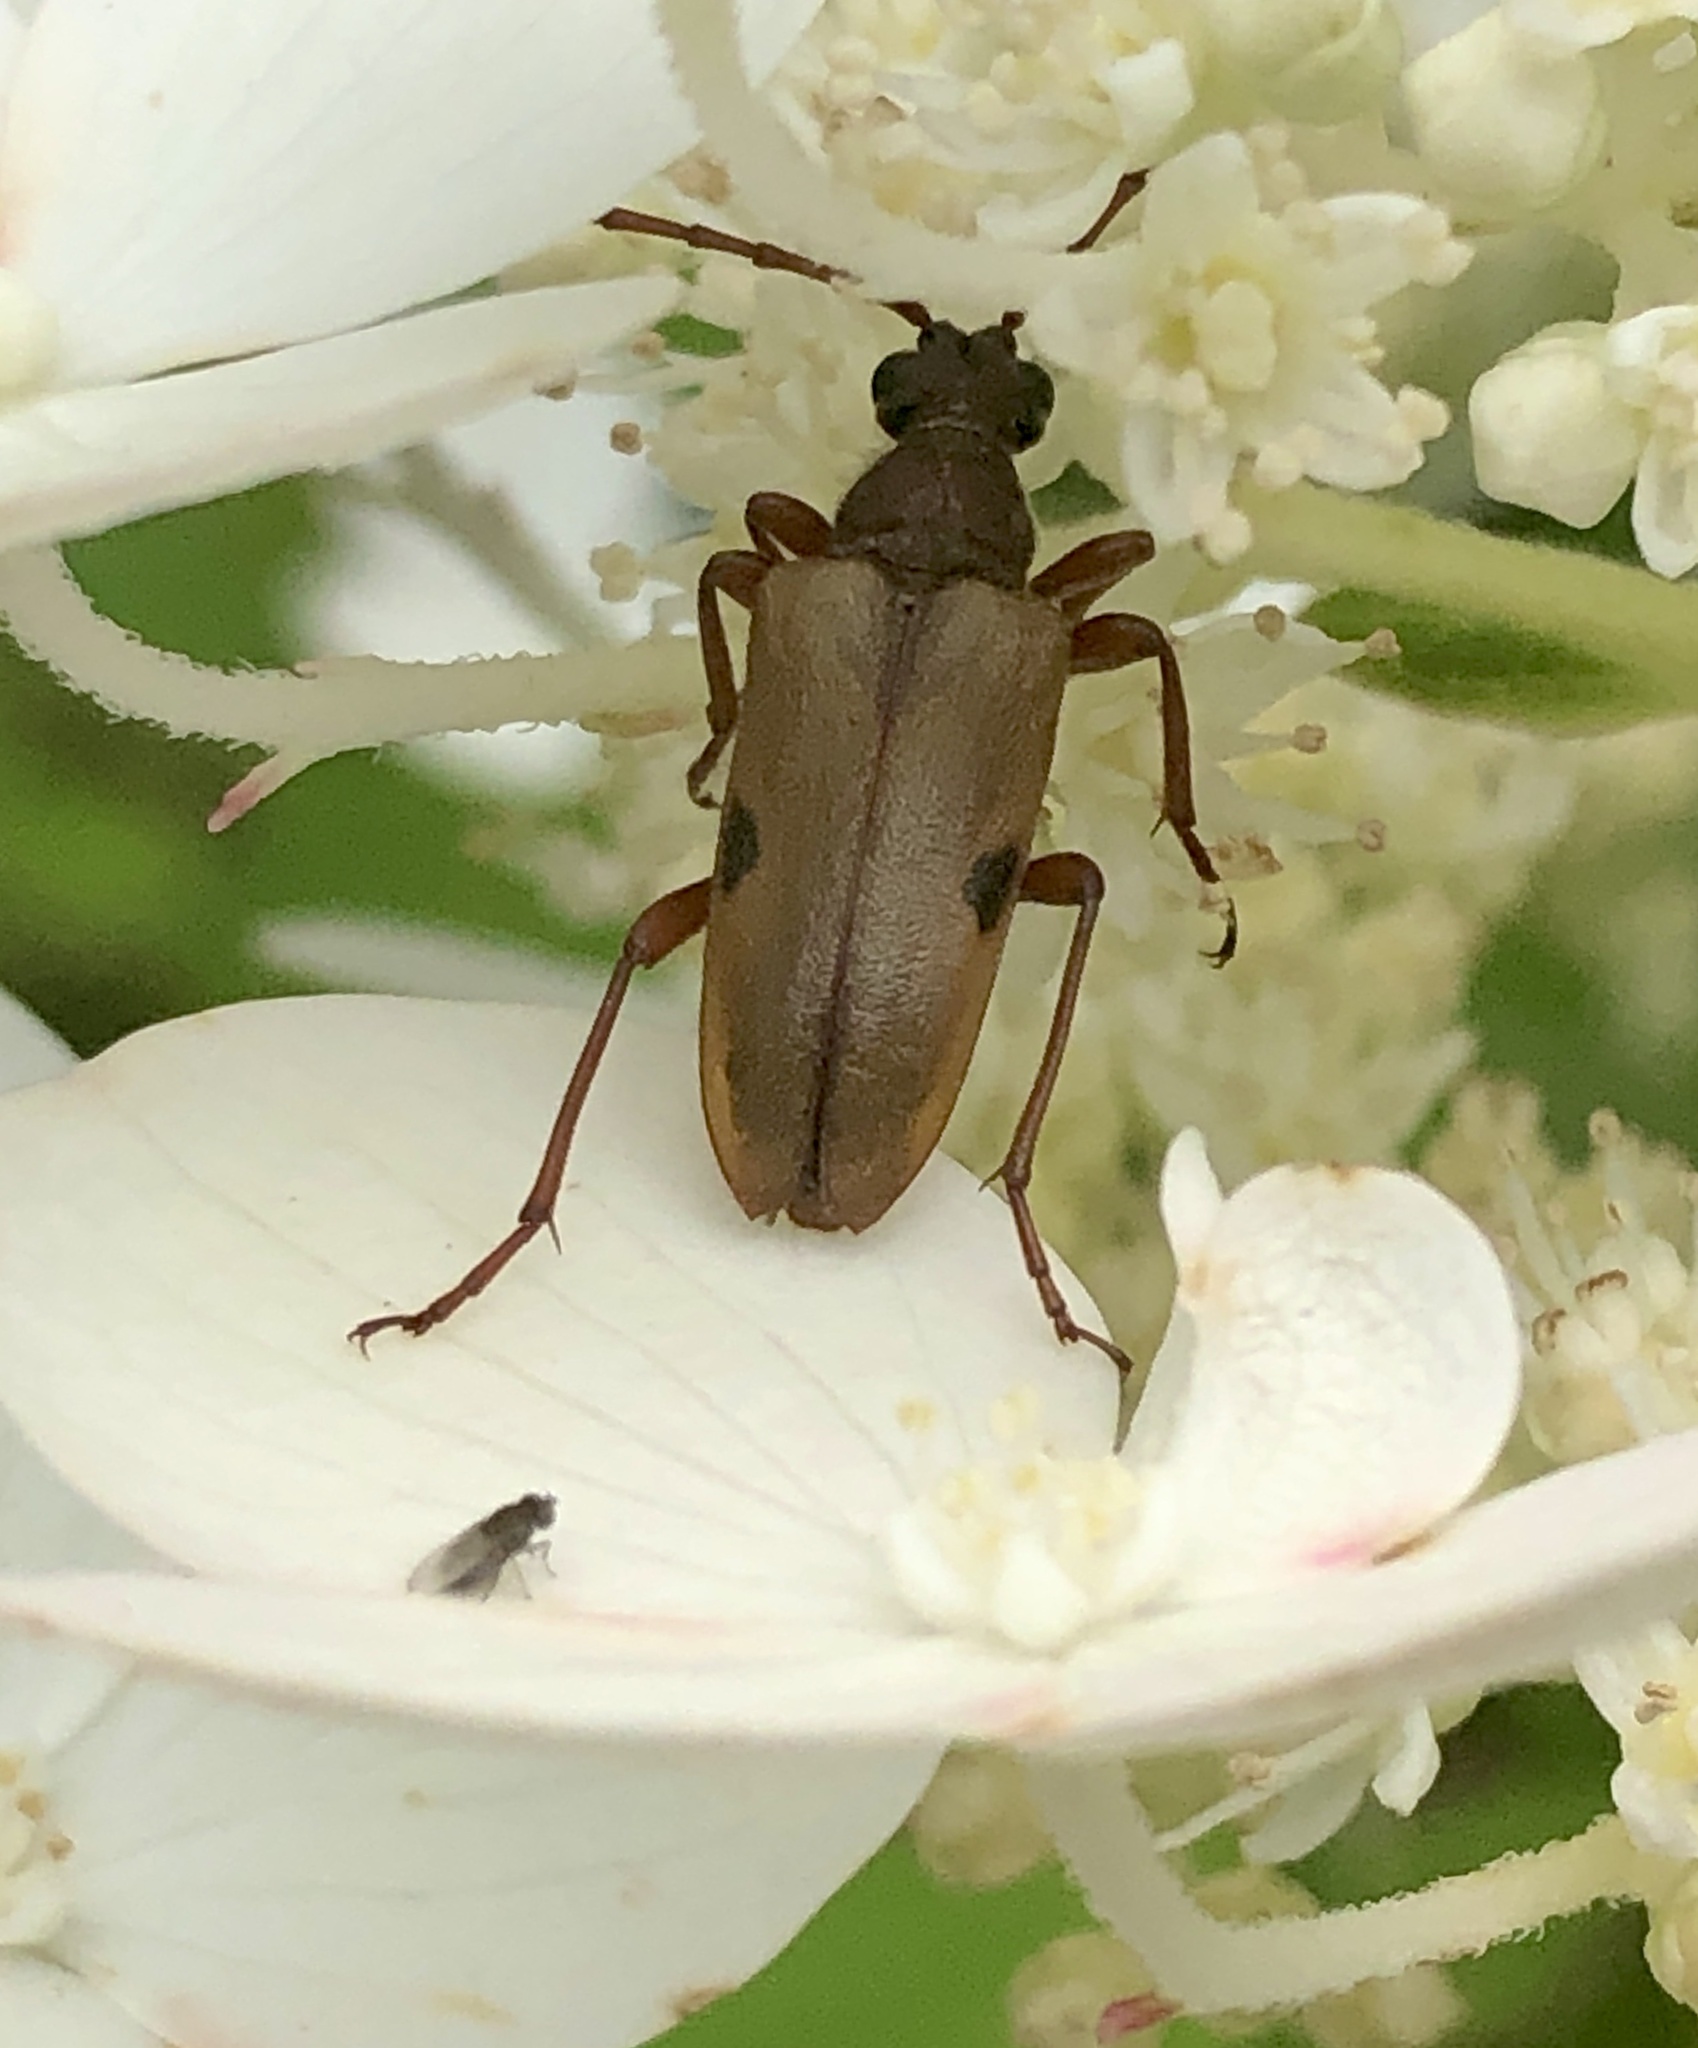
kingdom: Animalia
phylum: Arthropoda
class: Insecta
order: Coleoptera
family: Cerambycidae
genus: Lepturopsis
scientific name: Lepturopsis biforis
